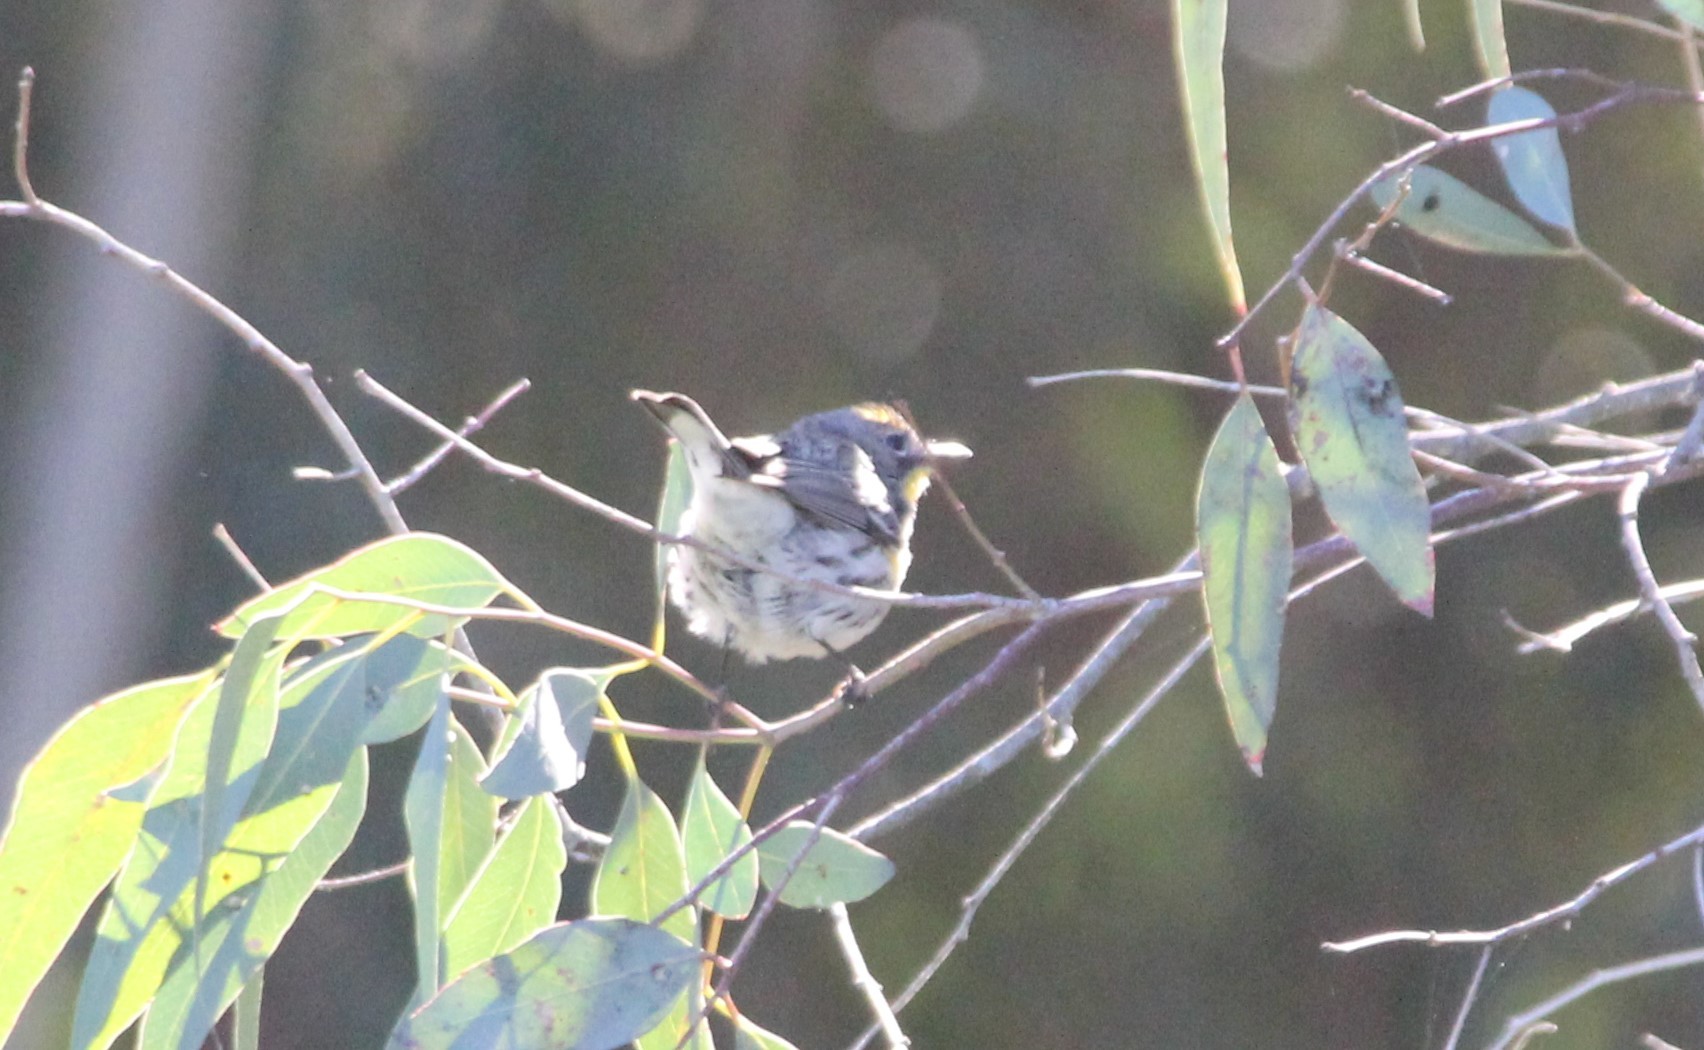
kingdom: Animalia
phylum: Chordata
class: Aves
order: Passeriformes
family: Parulidae
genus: Setophaga
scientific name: Setophaga auduboni
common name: Audubon's warbler
